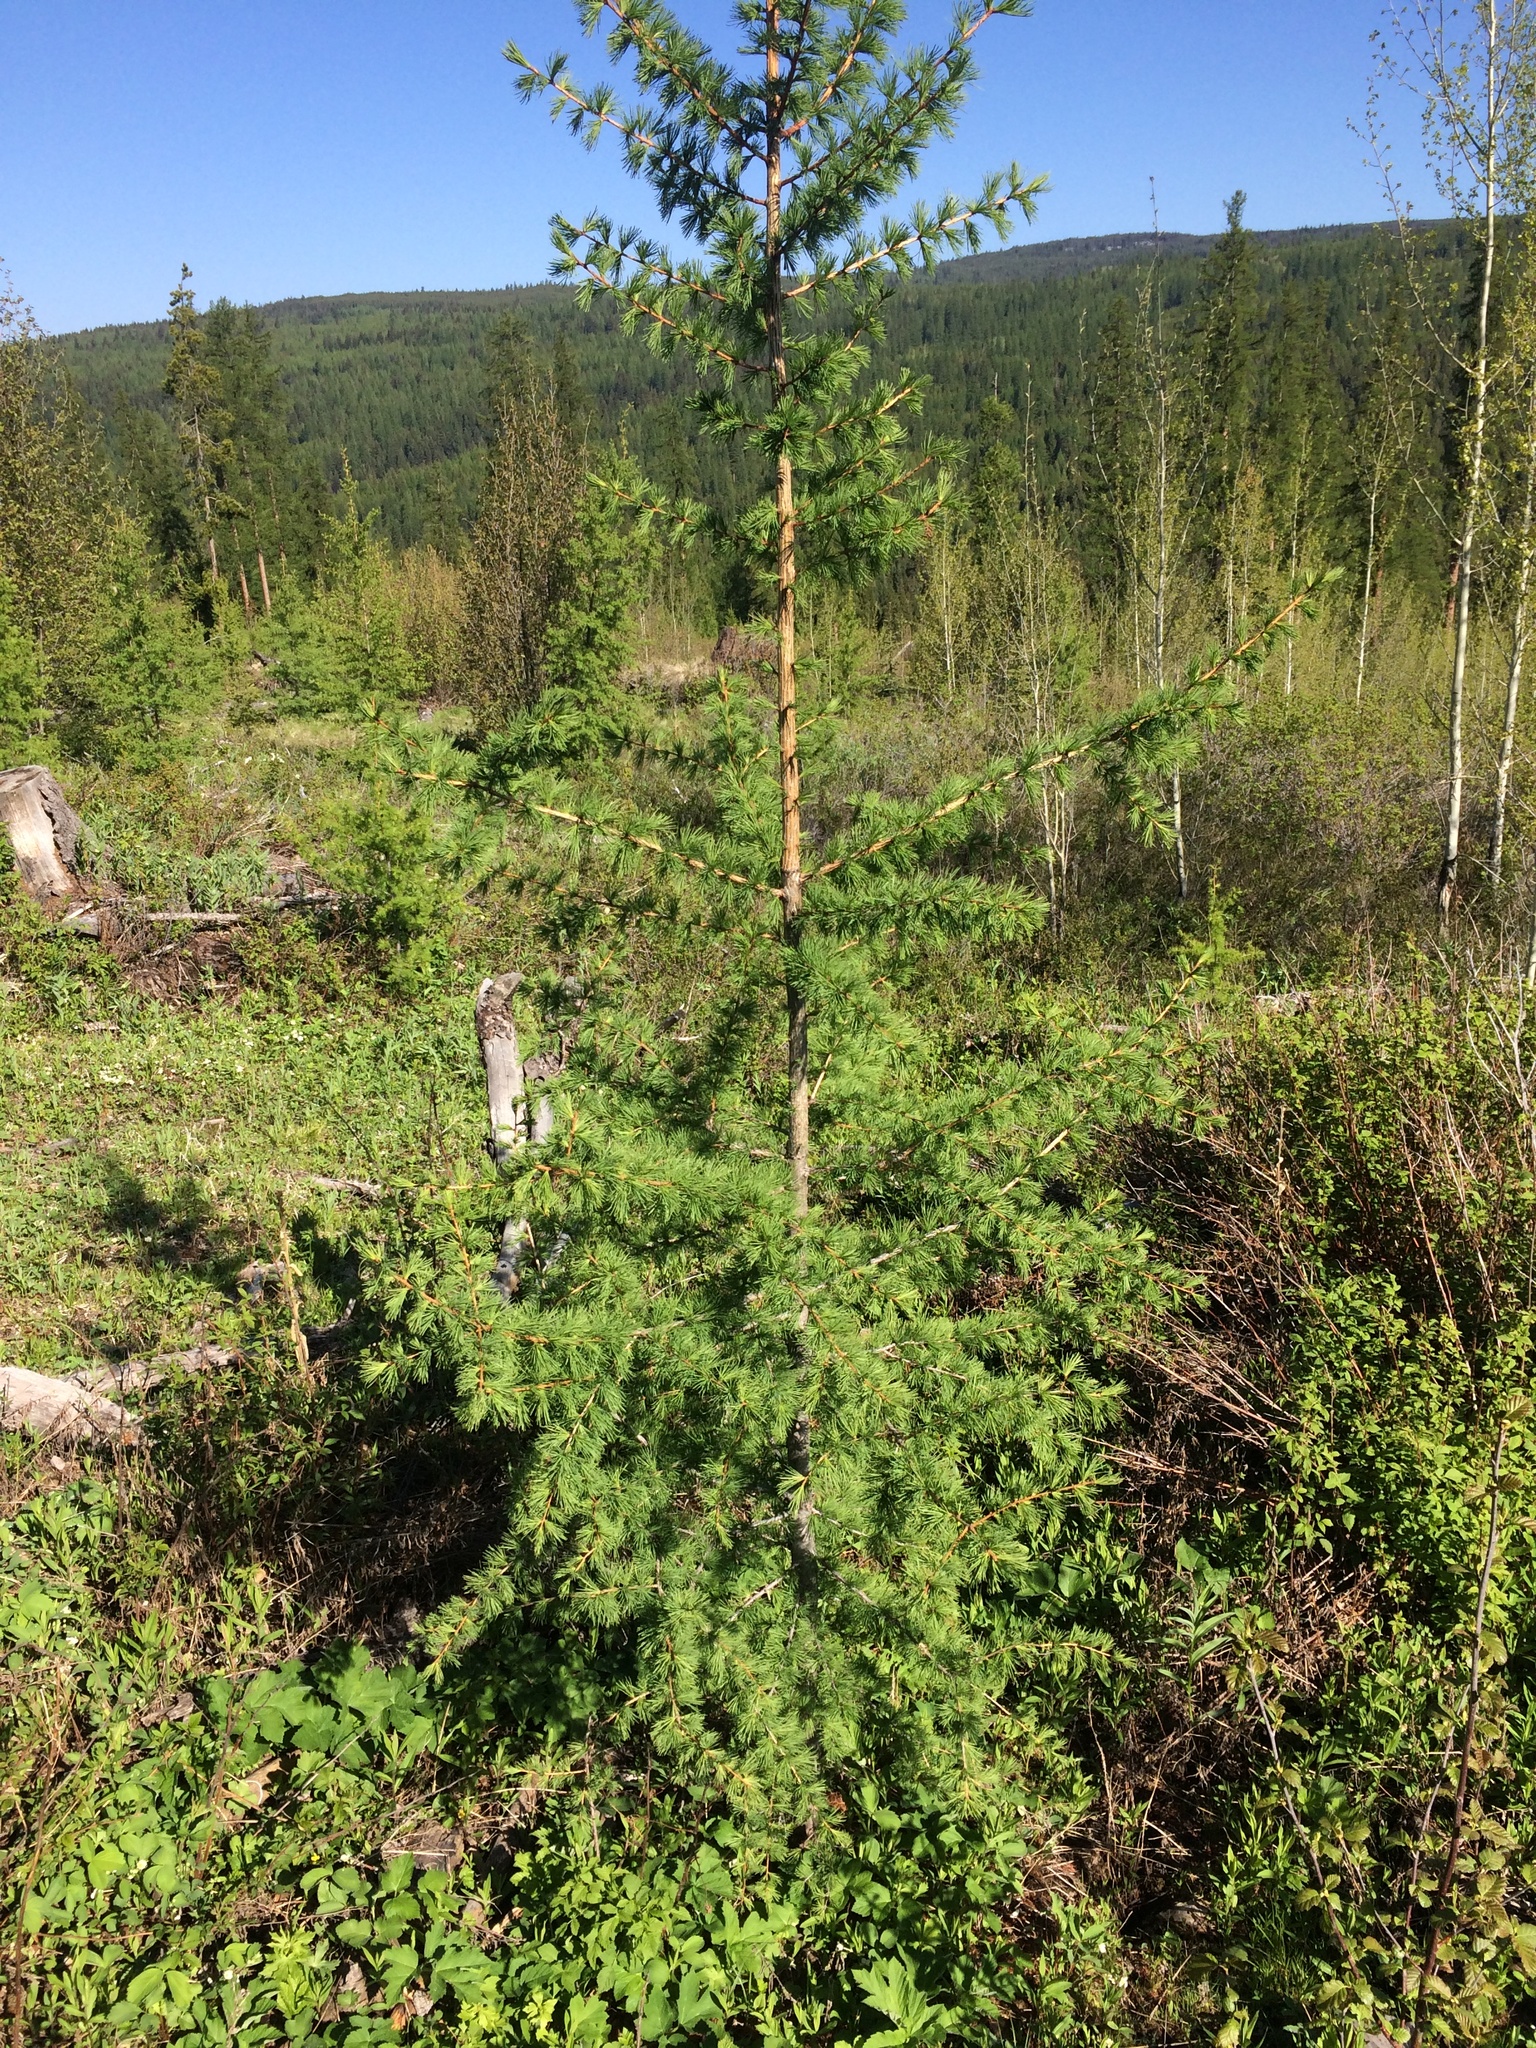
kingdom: Plantae
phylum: Tracheophyta
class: Pinopsida
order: Pinales
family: Pinaceae
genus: Larix
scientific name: Larix occidentalis
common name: Western larch
